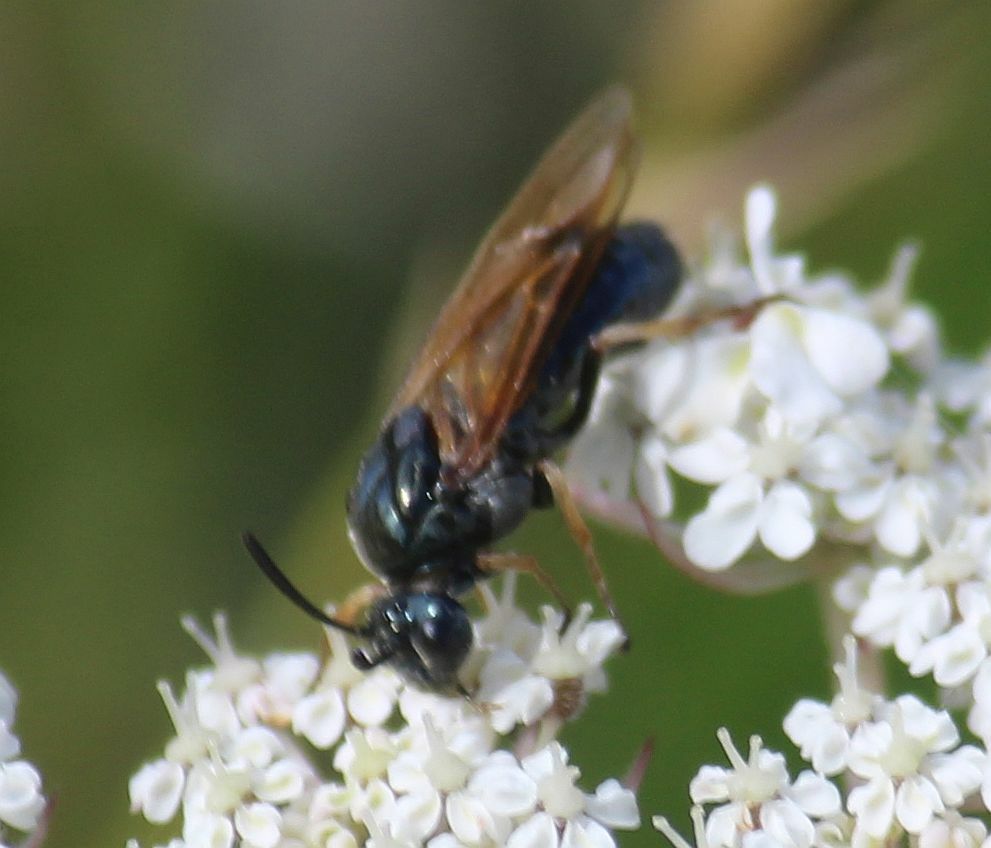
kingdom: Animalia
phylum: Arthropoda
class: Insecta
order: Hymenoptera
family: Argidae
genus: Arge
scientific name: Arge ustulata
